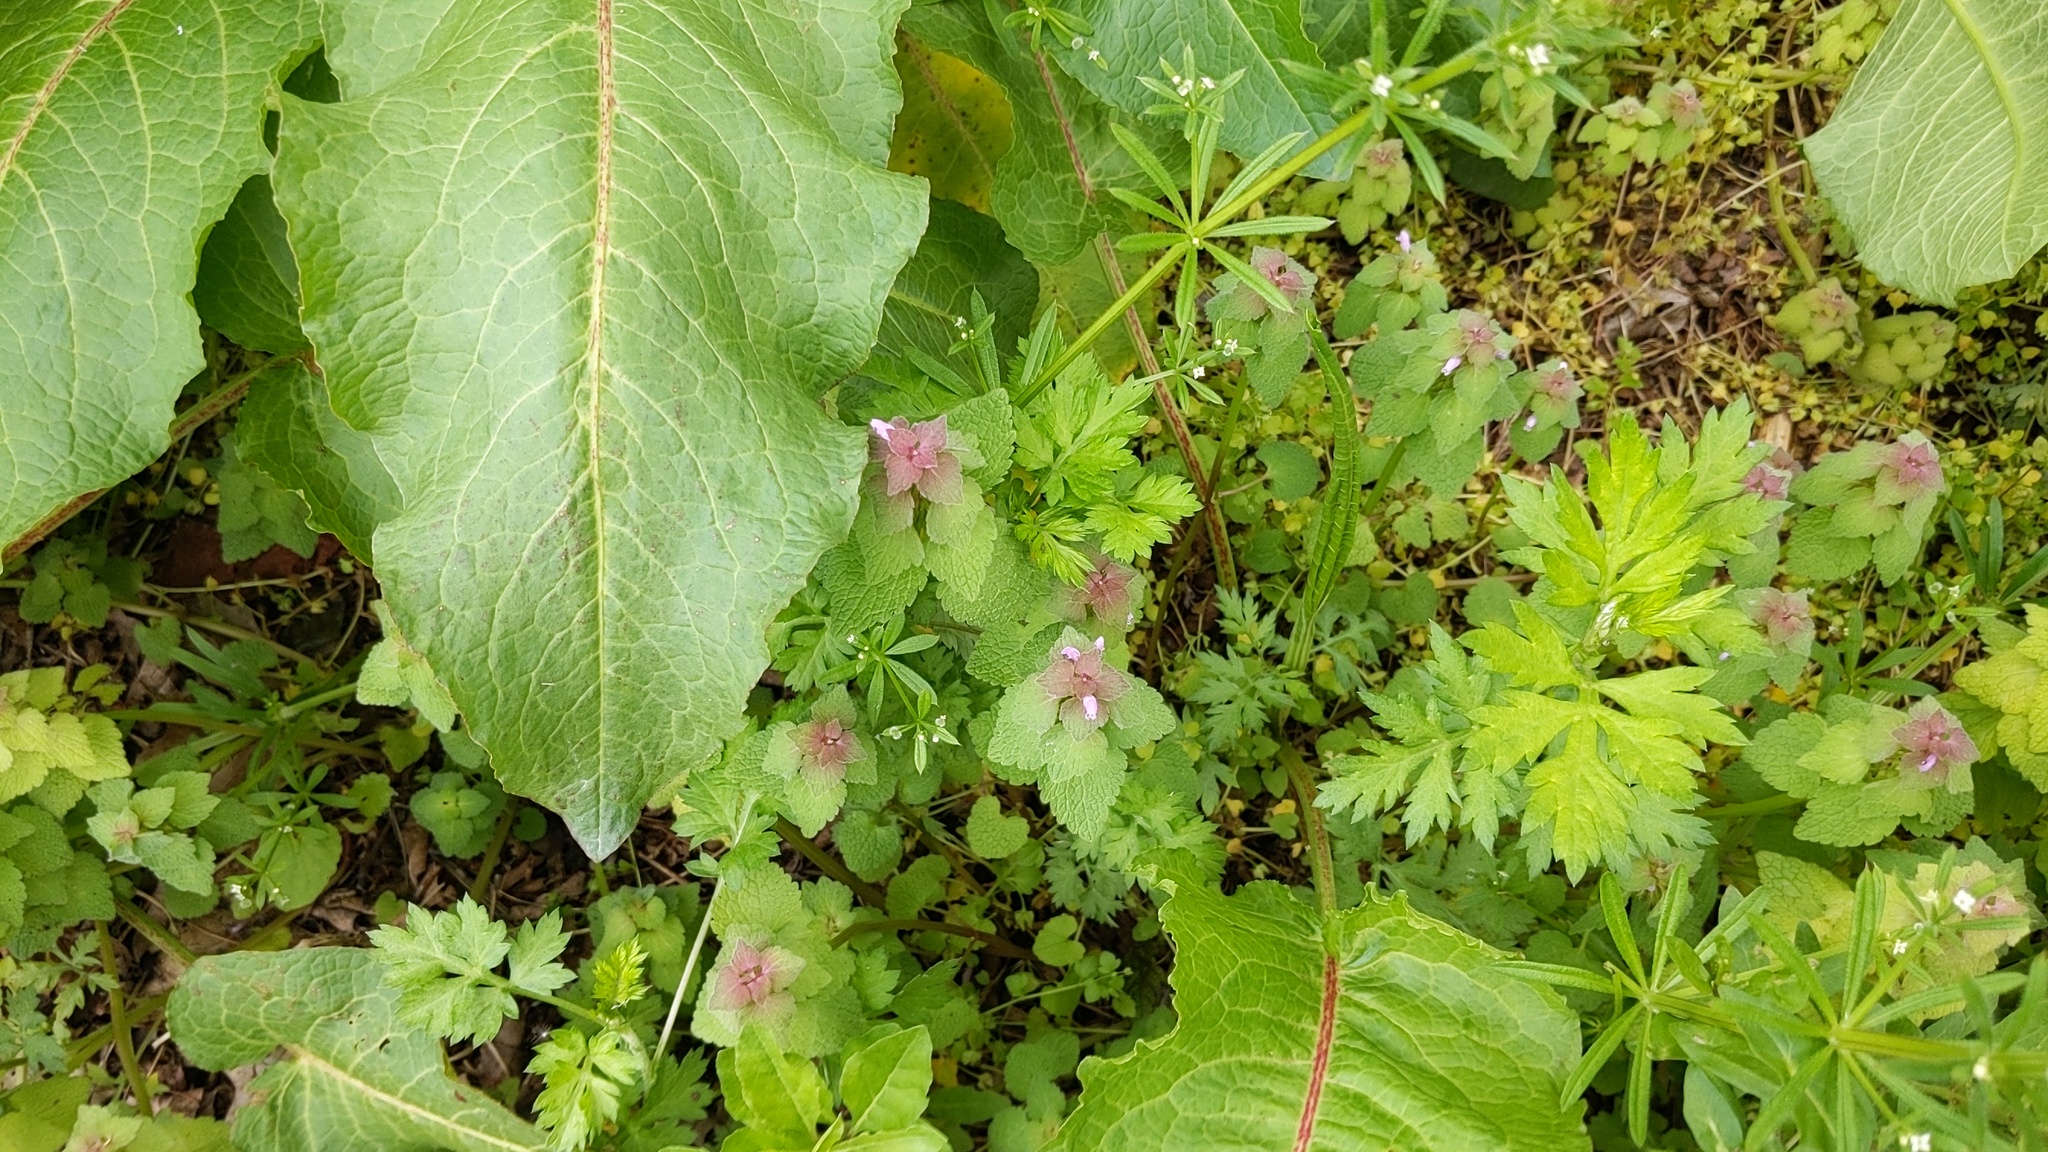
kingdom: Plantae
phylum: Tracheophyta
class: Magnoliopsida
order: Lamiales
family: Lamiaceae
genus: Lamium
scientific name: Lamium purpureum
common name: Red dead-nettle
